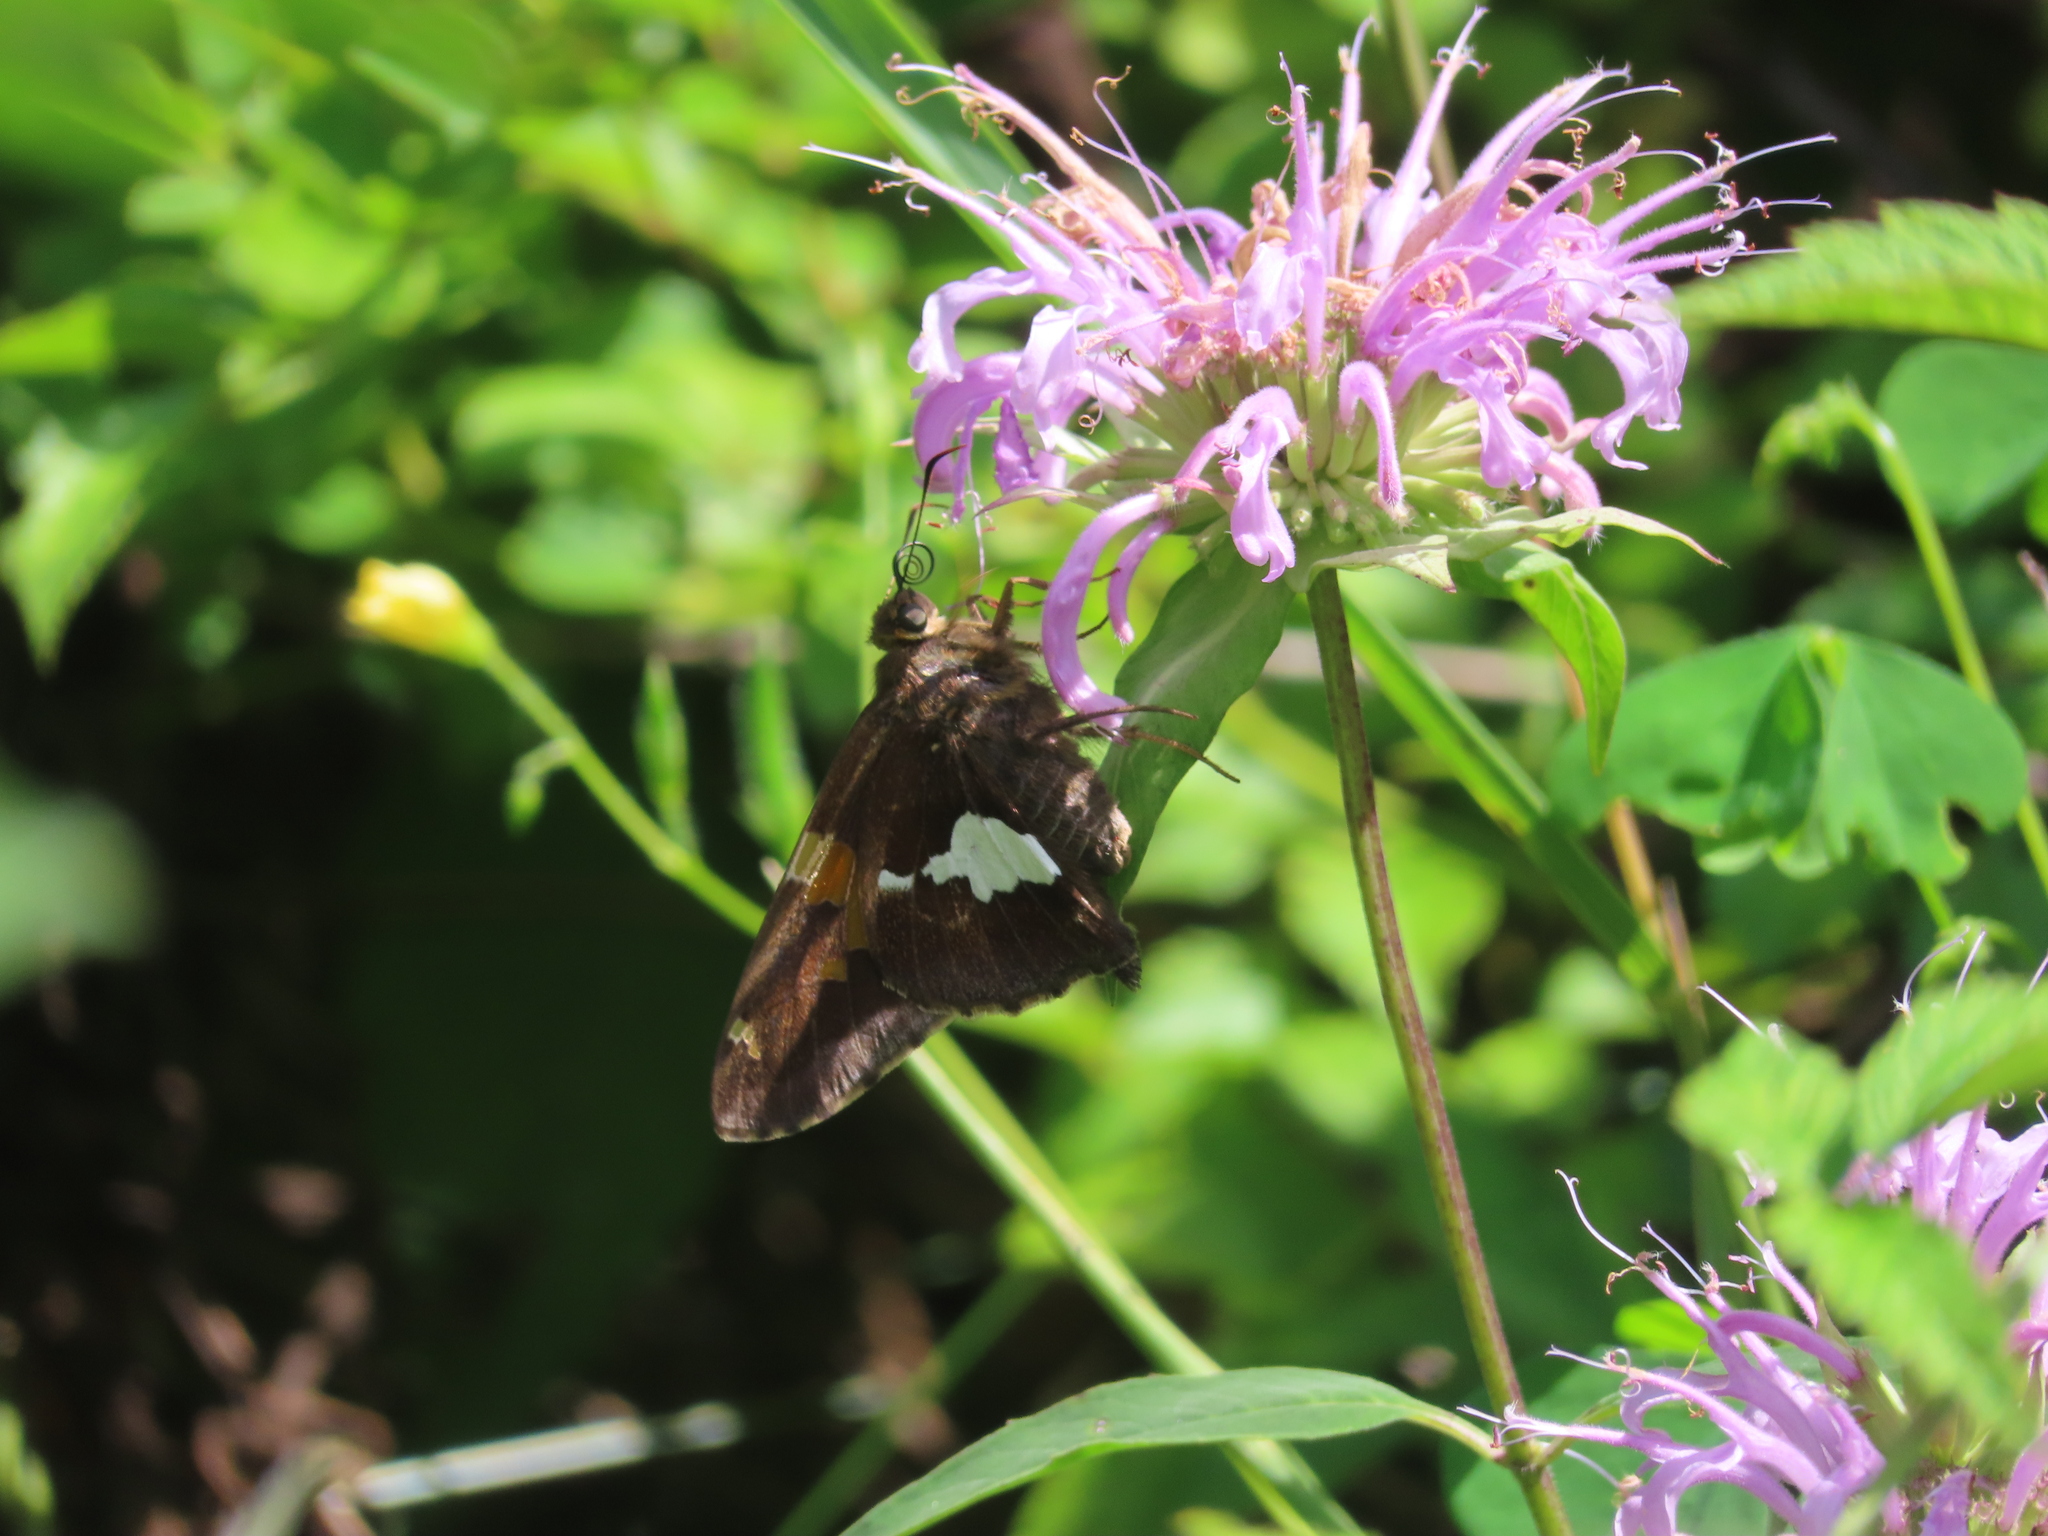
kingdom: Animalia
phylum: Arthropoda
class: Insecta
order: Lepidoptera
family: Hesperiidae
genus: Epargyreus
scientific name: Epargyreus clarus
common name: Silver-spotted skipper
